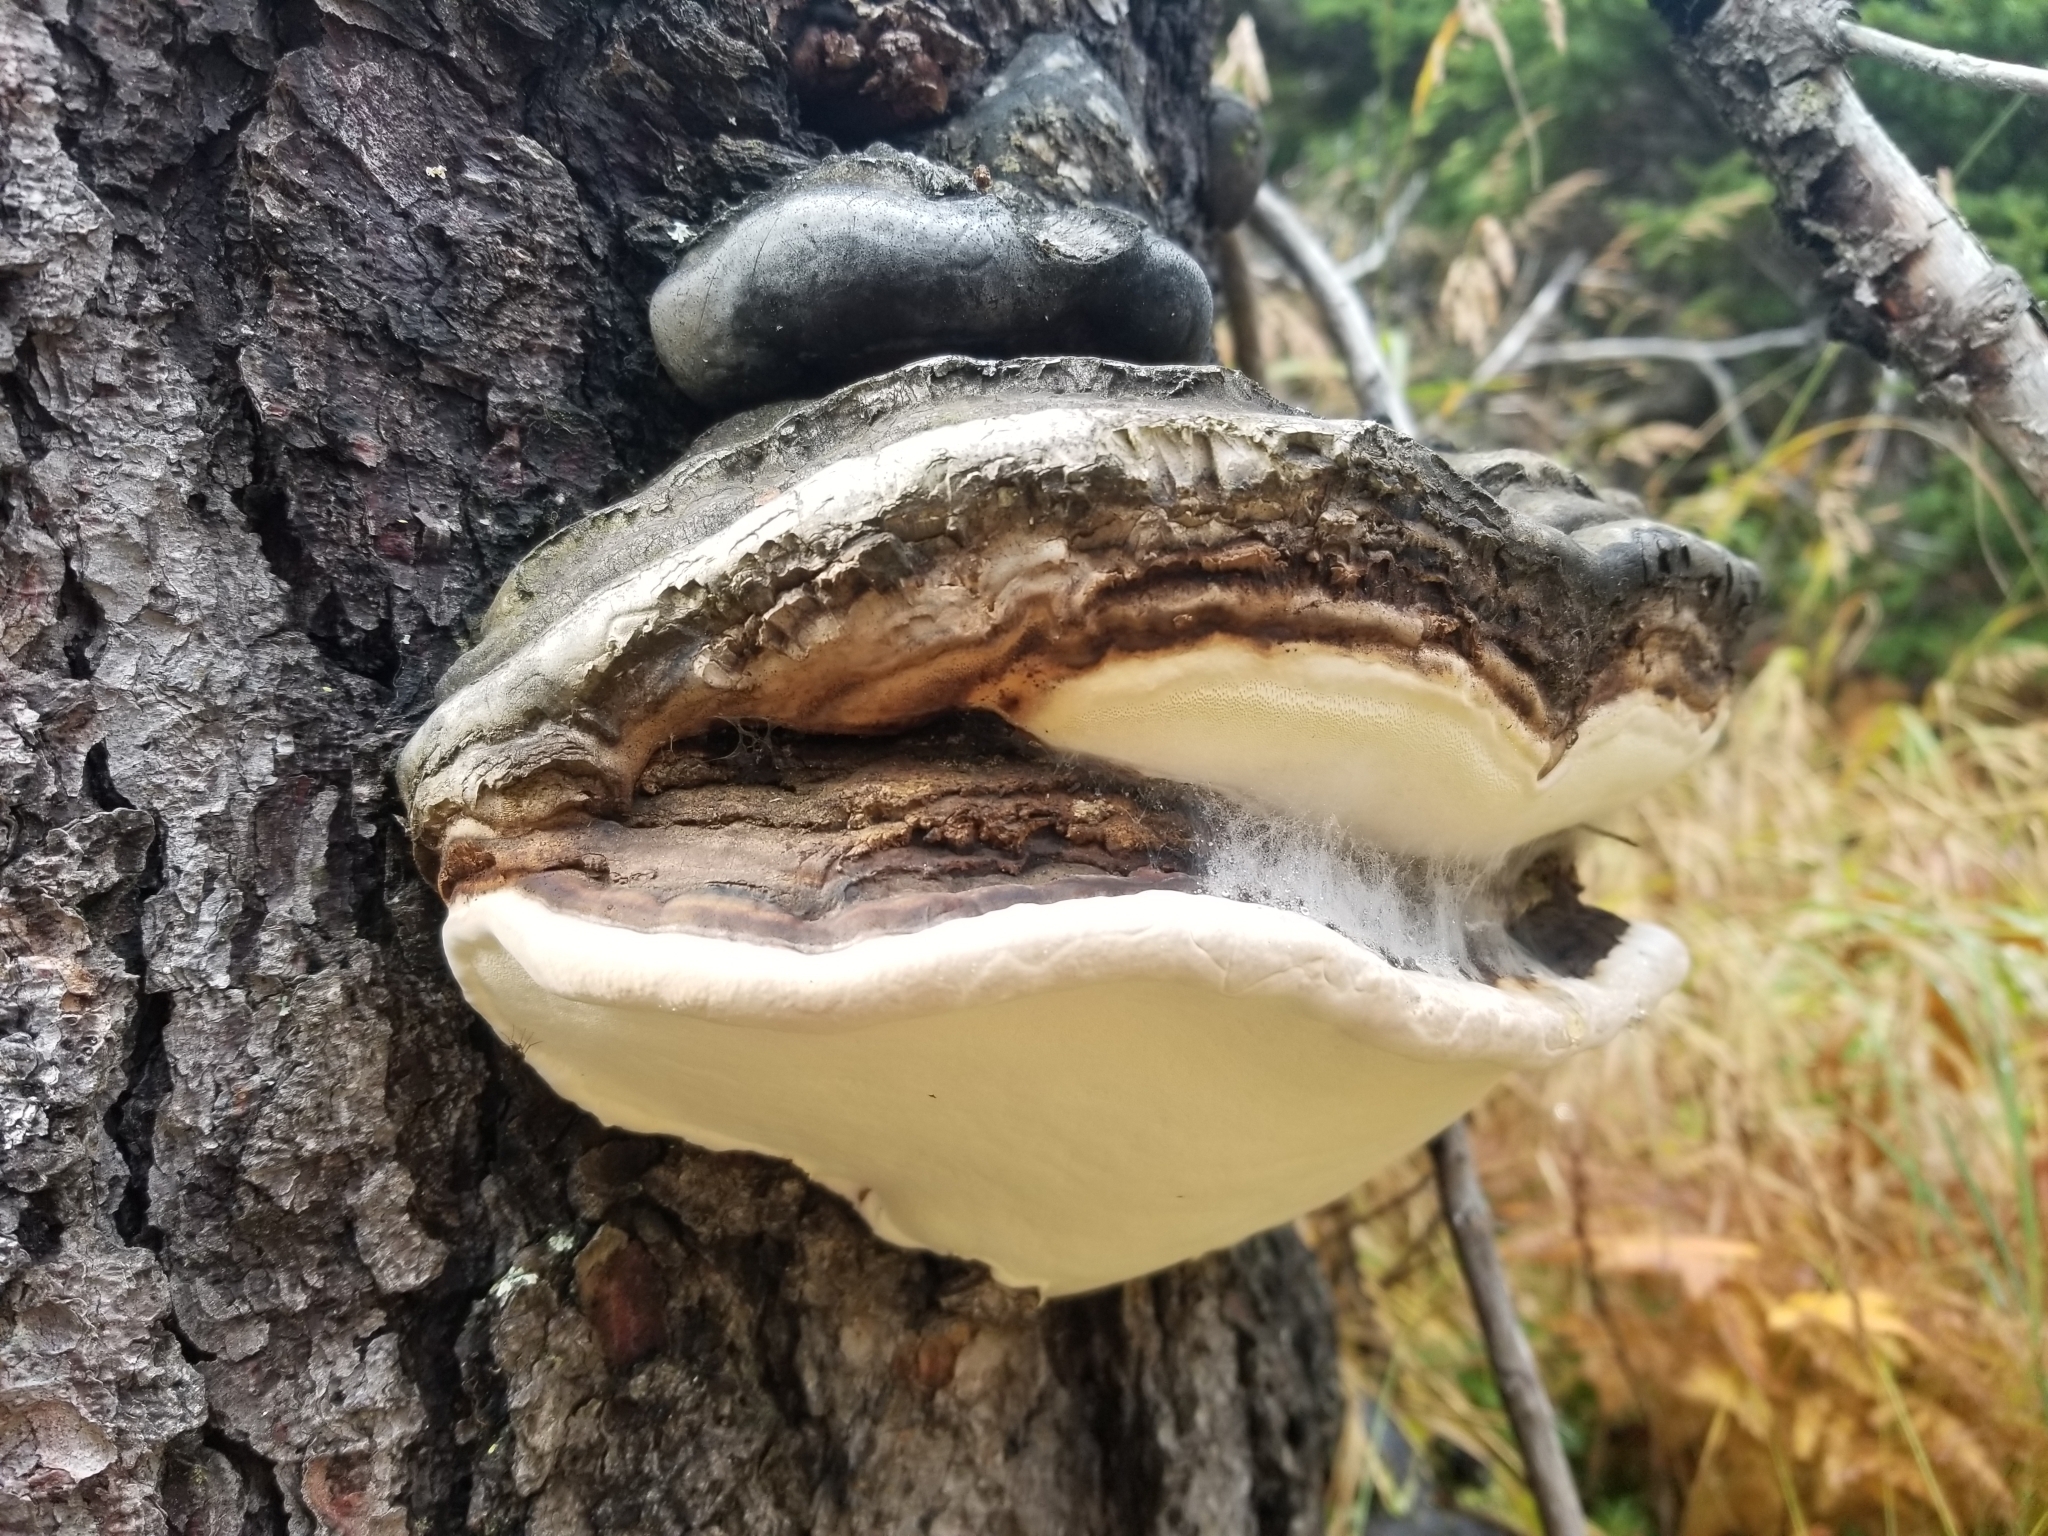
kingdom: Fungi
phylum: Basidiomycota
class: Agaricomycetes
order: Polyporales
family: Fomitopsidaceae
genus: Fomitopsis
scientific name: Fomitopsis ochracea
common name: American brown fomitopsis
